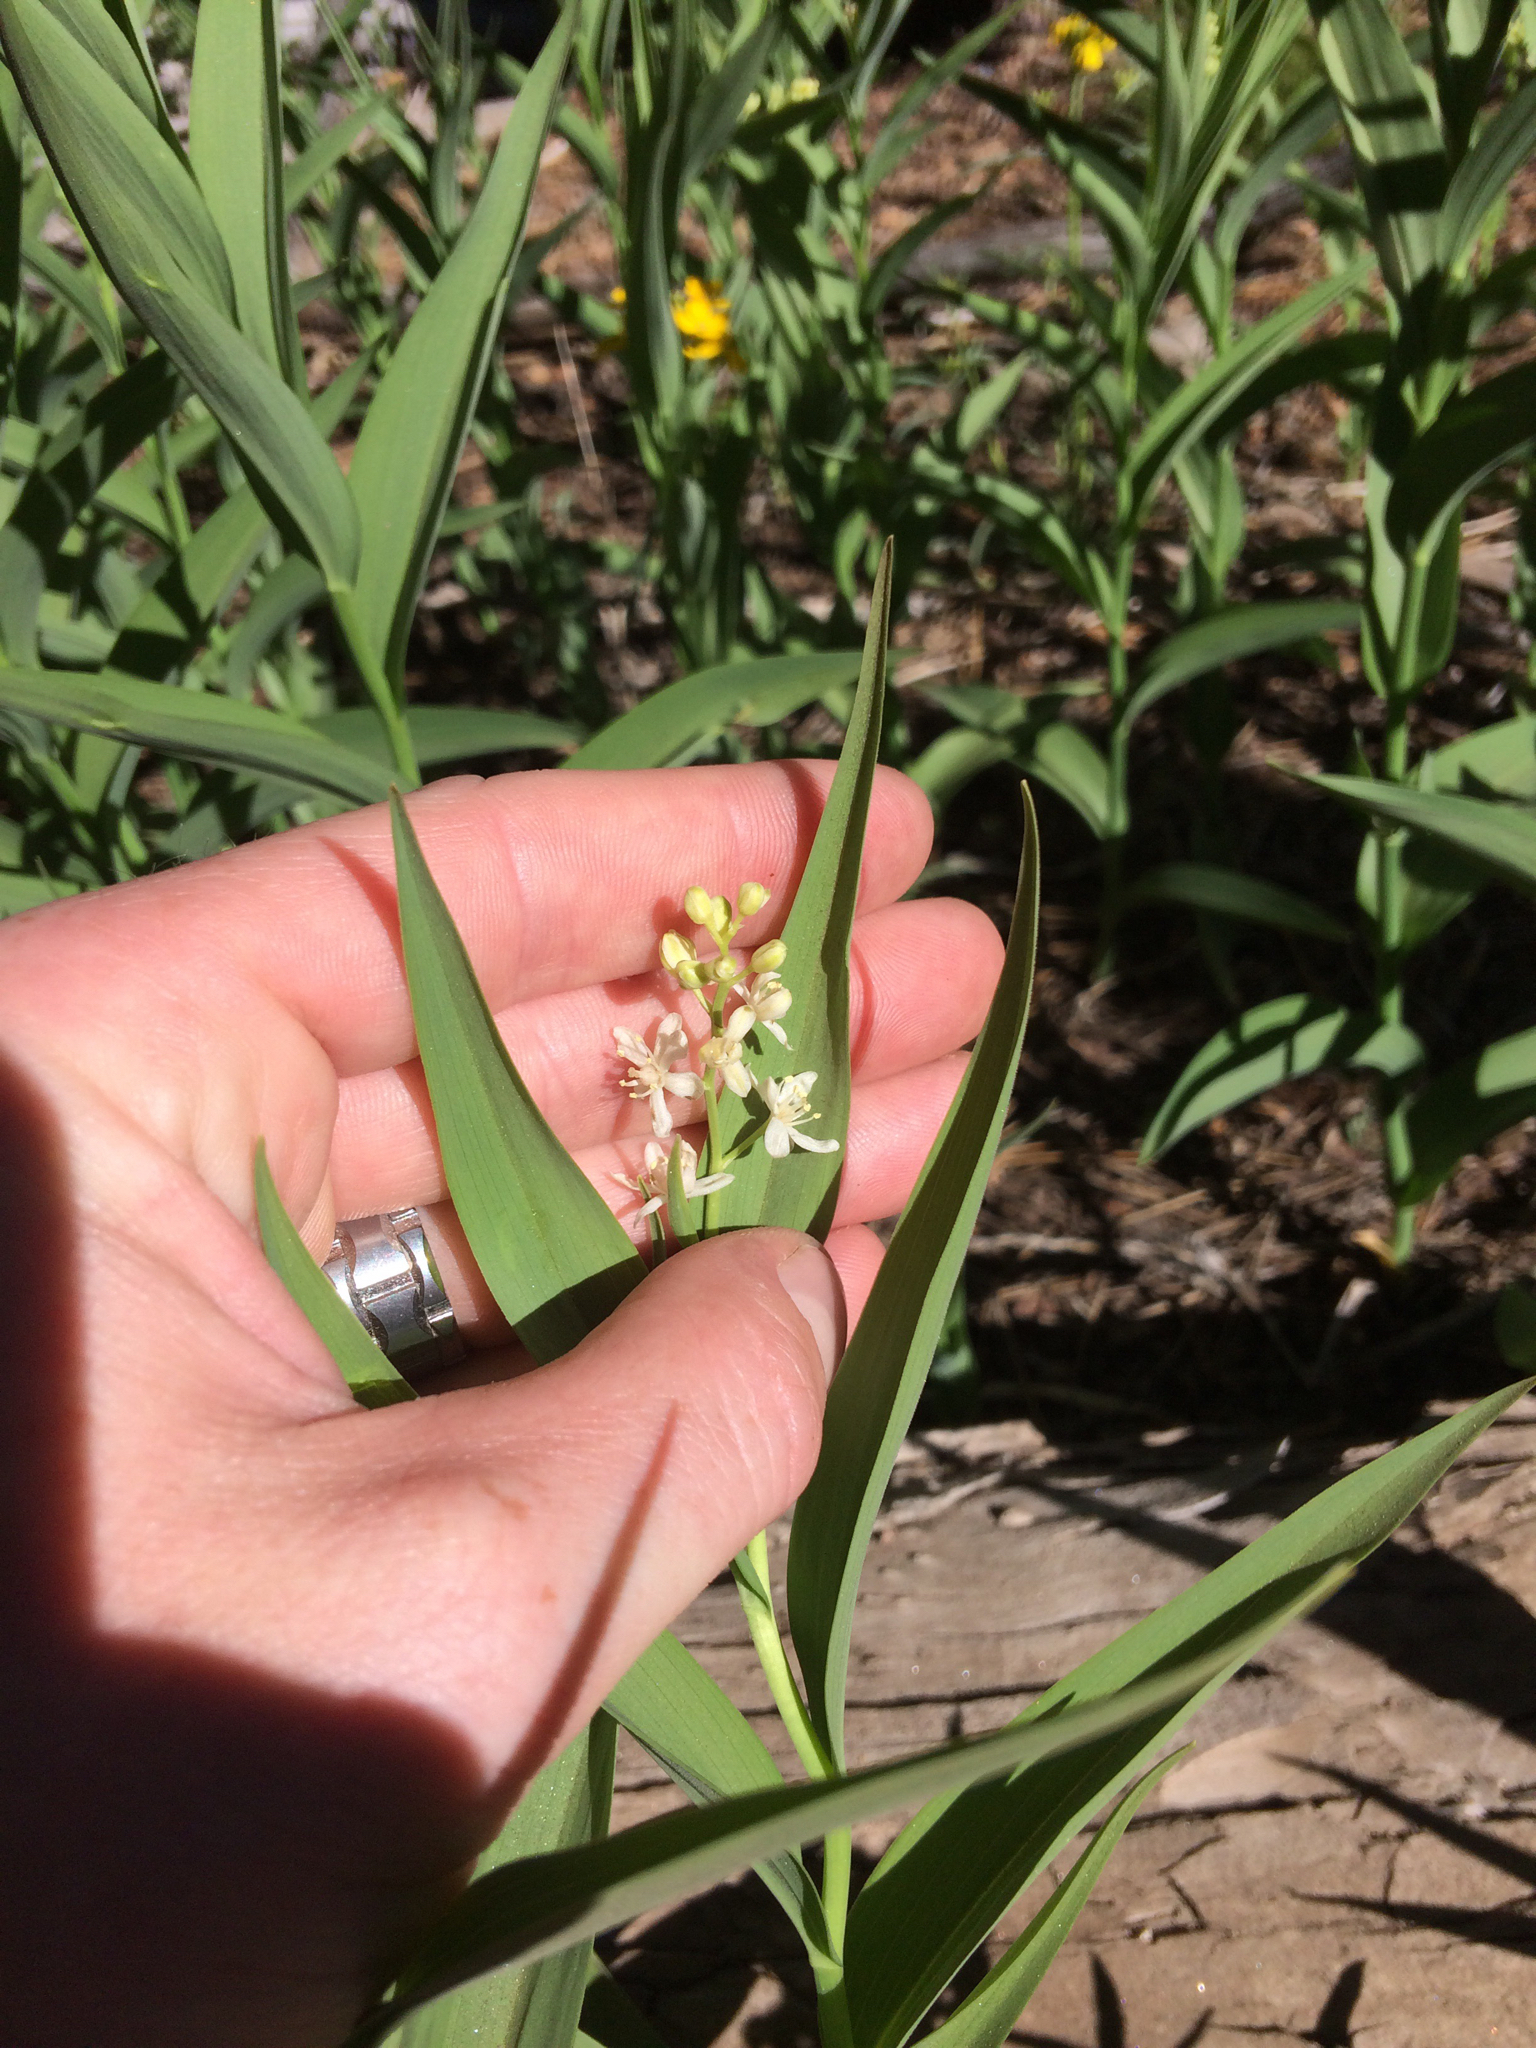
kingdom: Plantae
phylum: Tracheophyta
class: Liliopsida
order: Asparagales
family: Asparagaceae
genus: Maianthemum
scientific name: Maianthemum stellatum
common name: Little false solomon's seal
